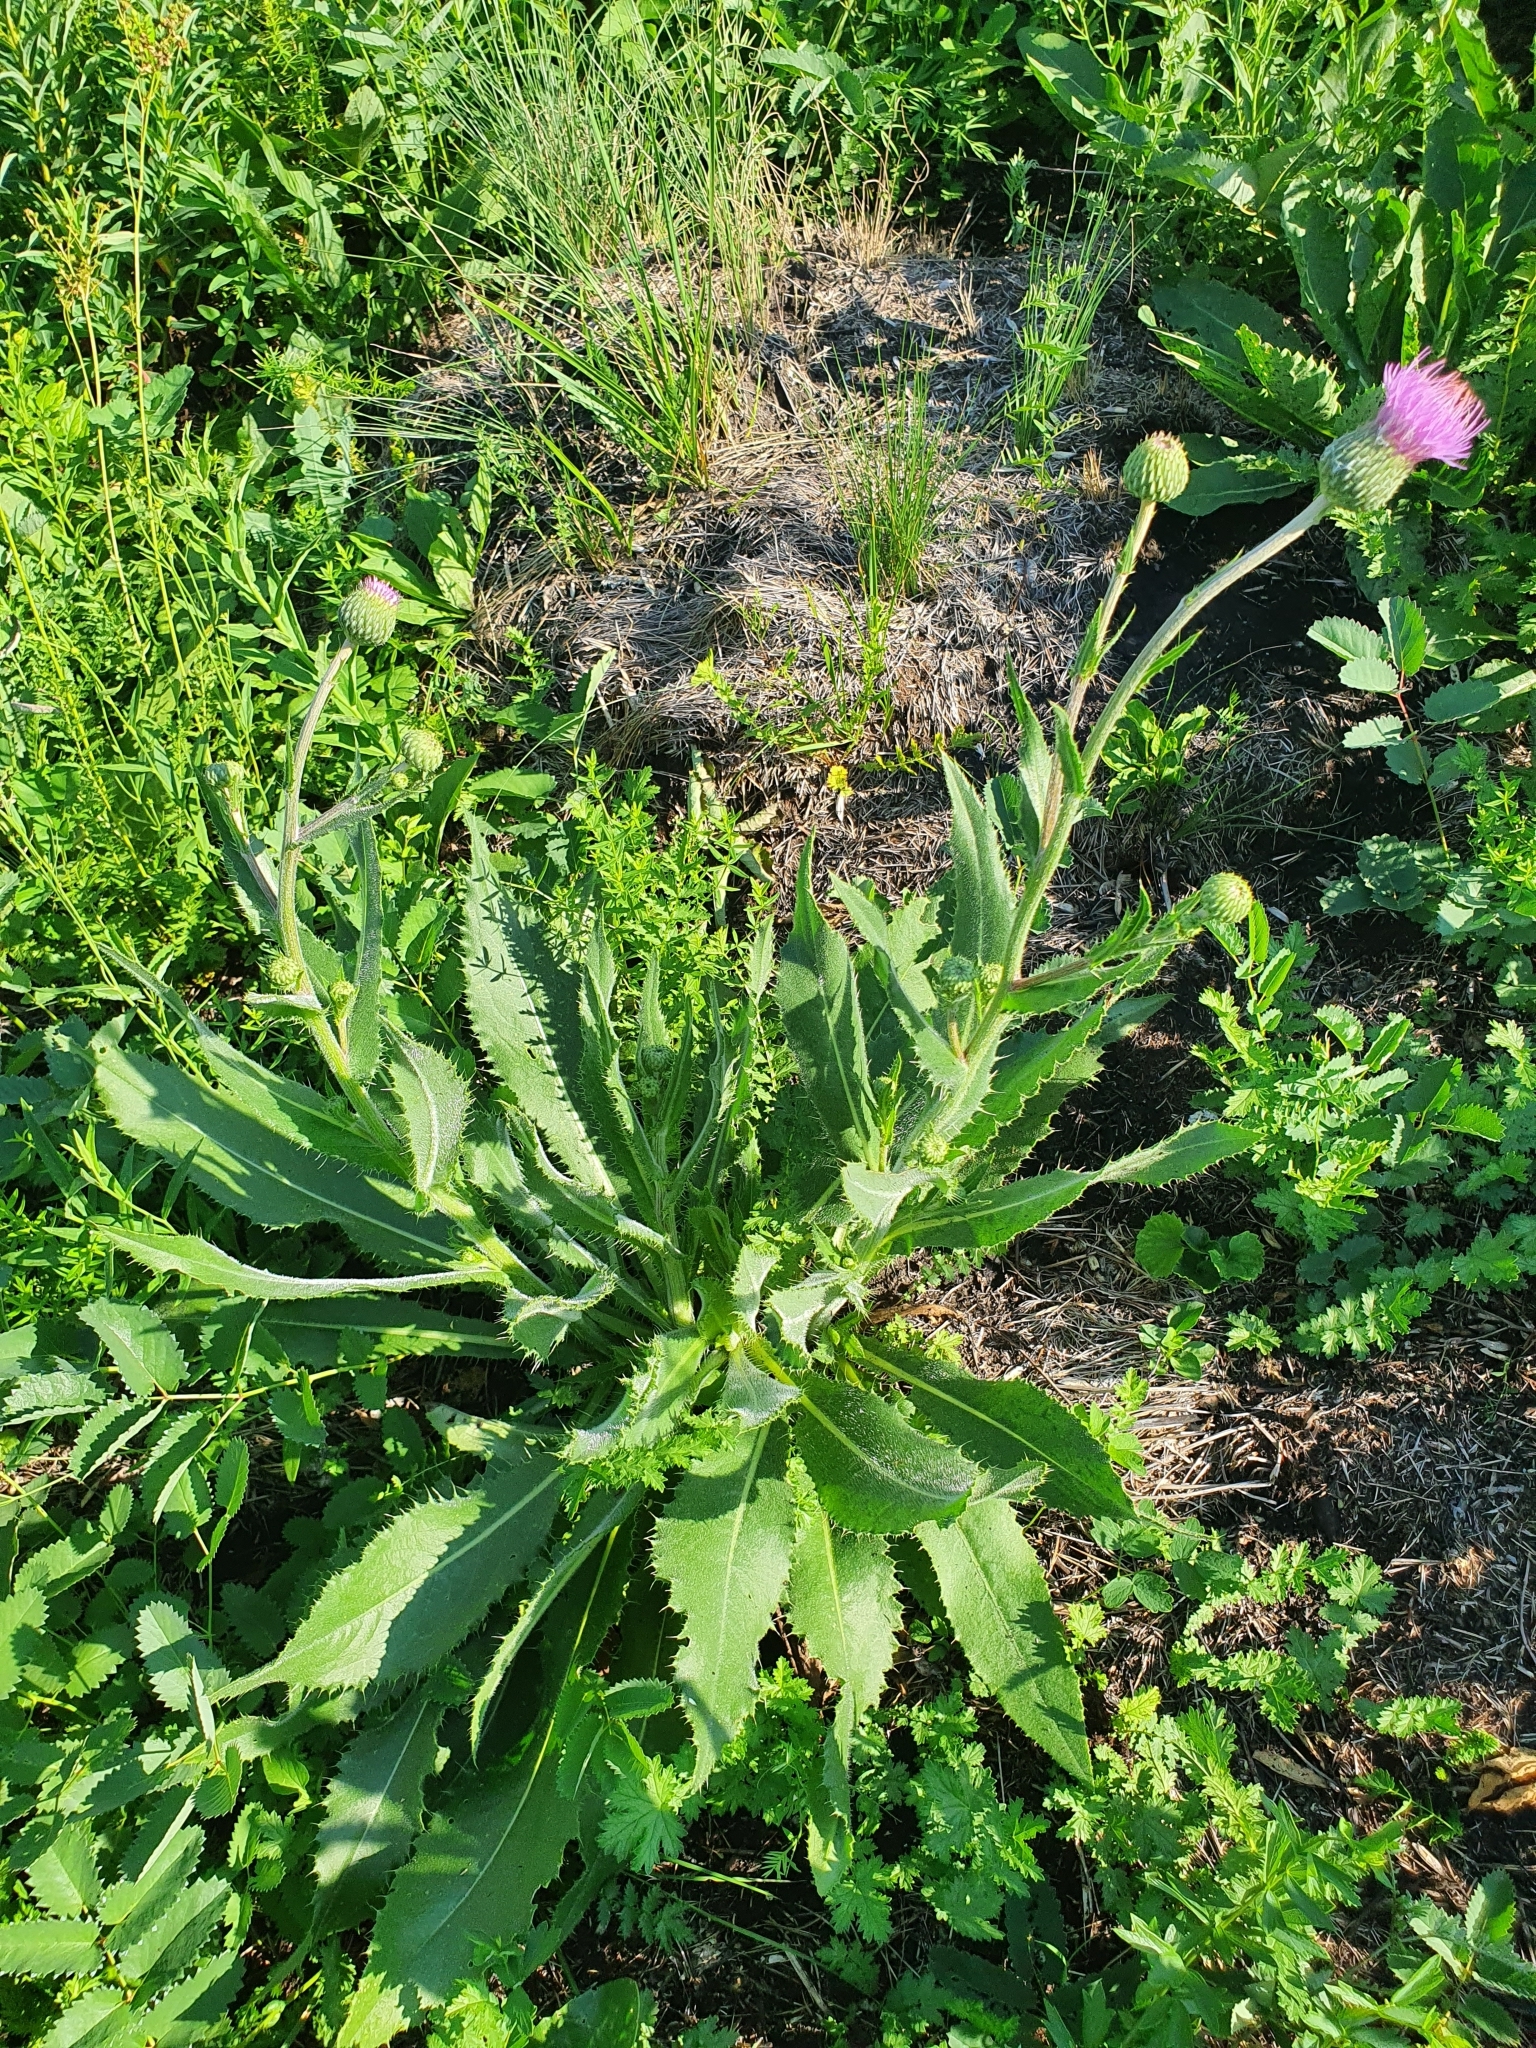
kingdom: Plantae
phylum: Tracheophyta
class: Magnoliopsida
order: Asterales
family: Asteraceae
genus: Cirsium
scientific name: Cirsium canum
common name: Queen anne's thistle
